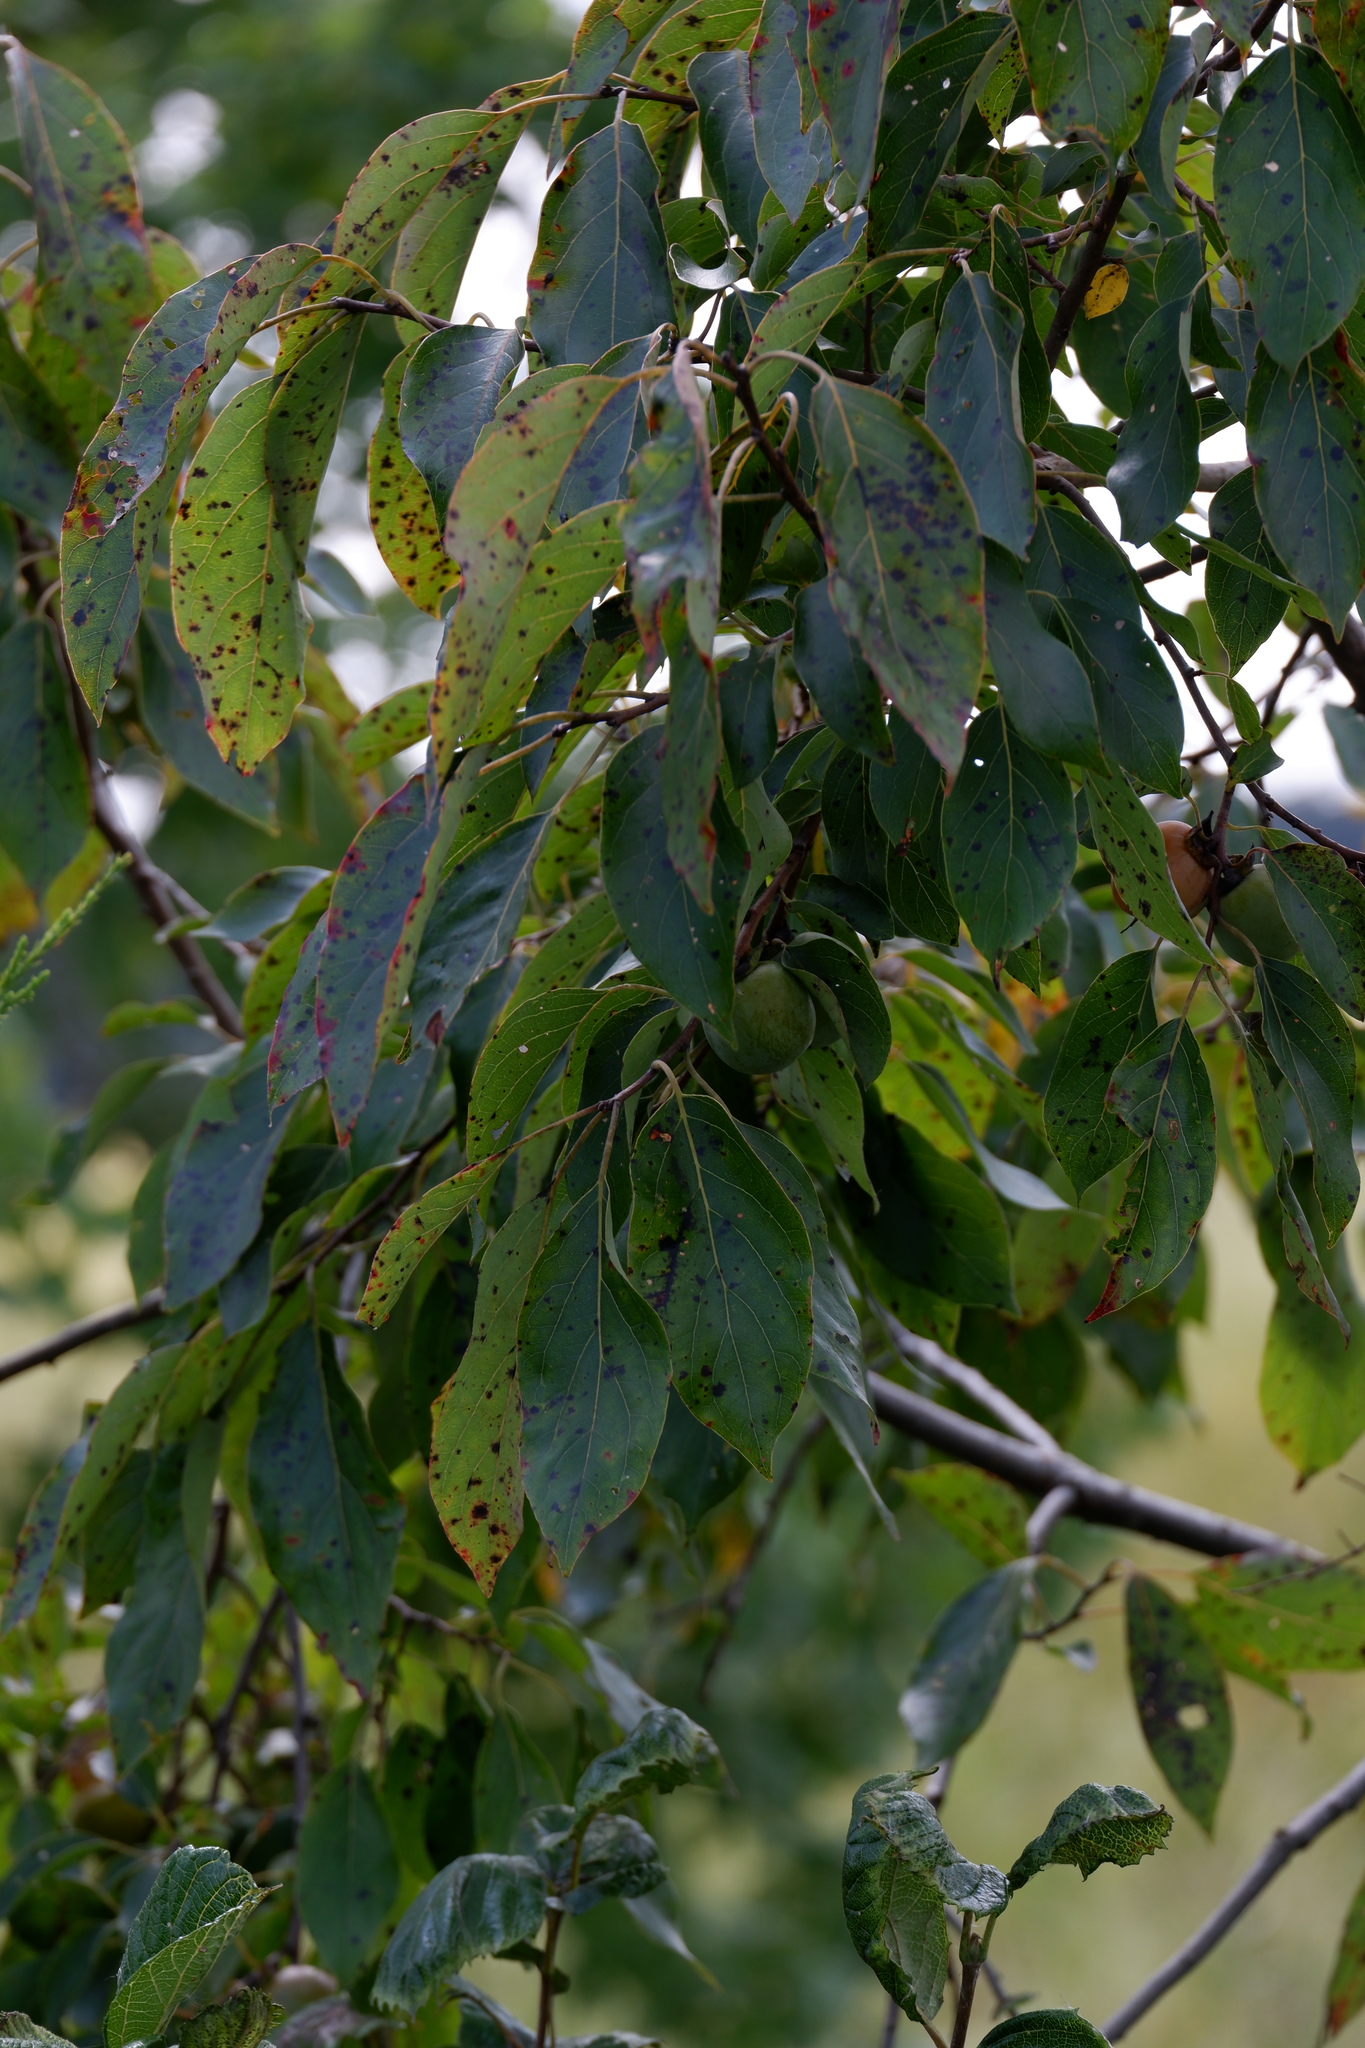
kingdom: Plantae
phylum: Tracheophyta
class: Magnoliopsida
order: Ericales
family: Ebenaceae
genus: Diospyros
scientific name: Diospyros virginiana
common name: Persimmon
